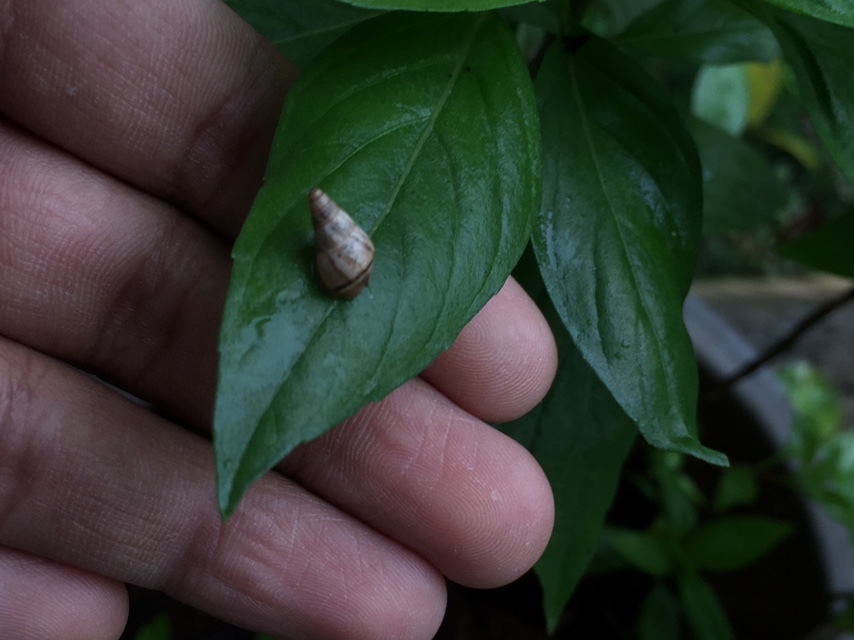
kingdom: Animalia
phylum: Mollusca
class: Gastropoda
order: Stylommatophora
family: Cerastidae
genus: Rachis
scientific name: Rachis punctata
